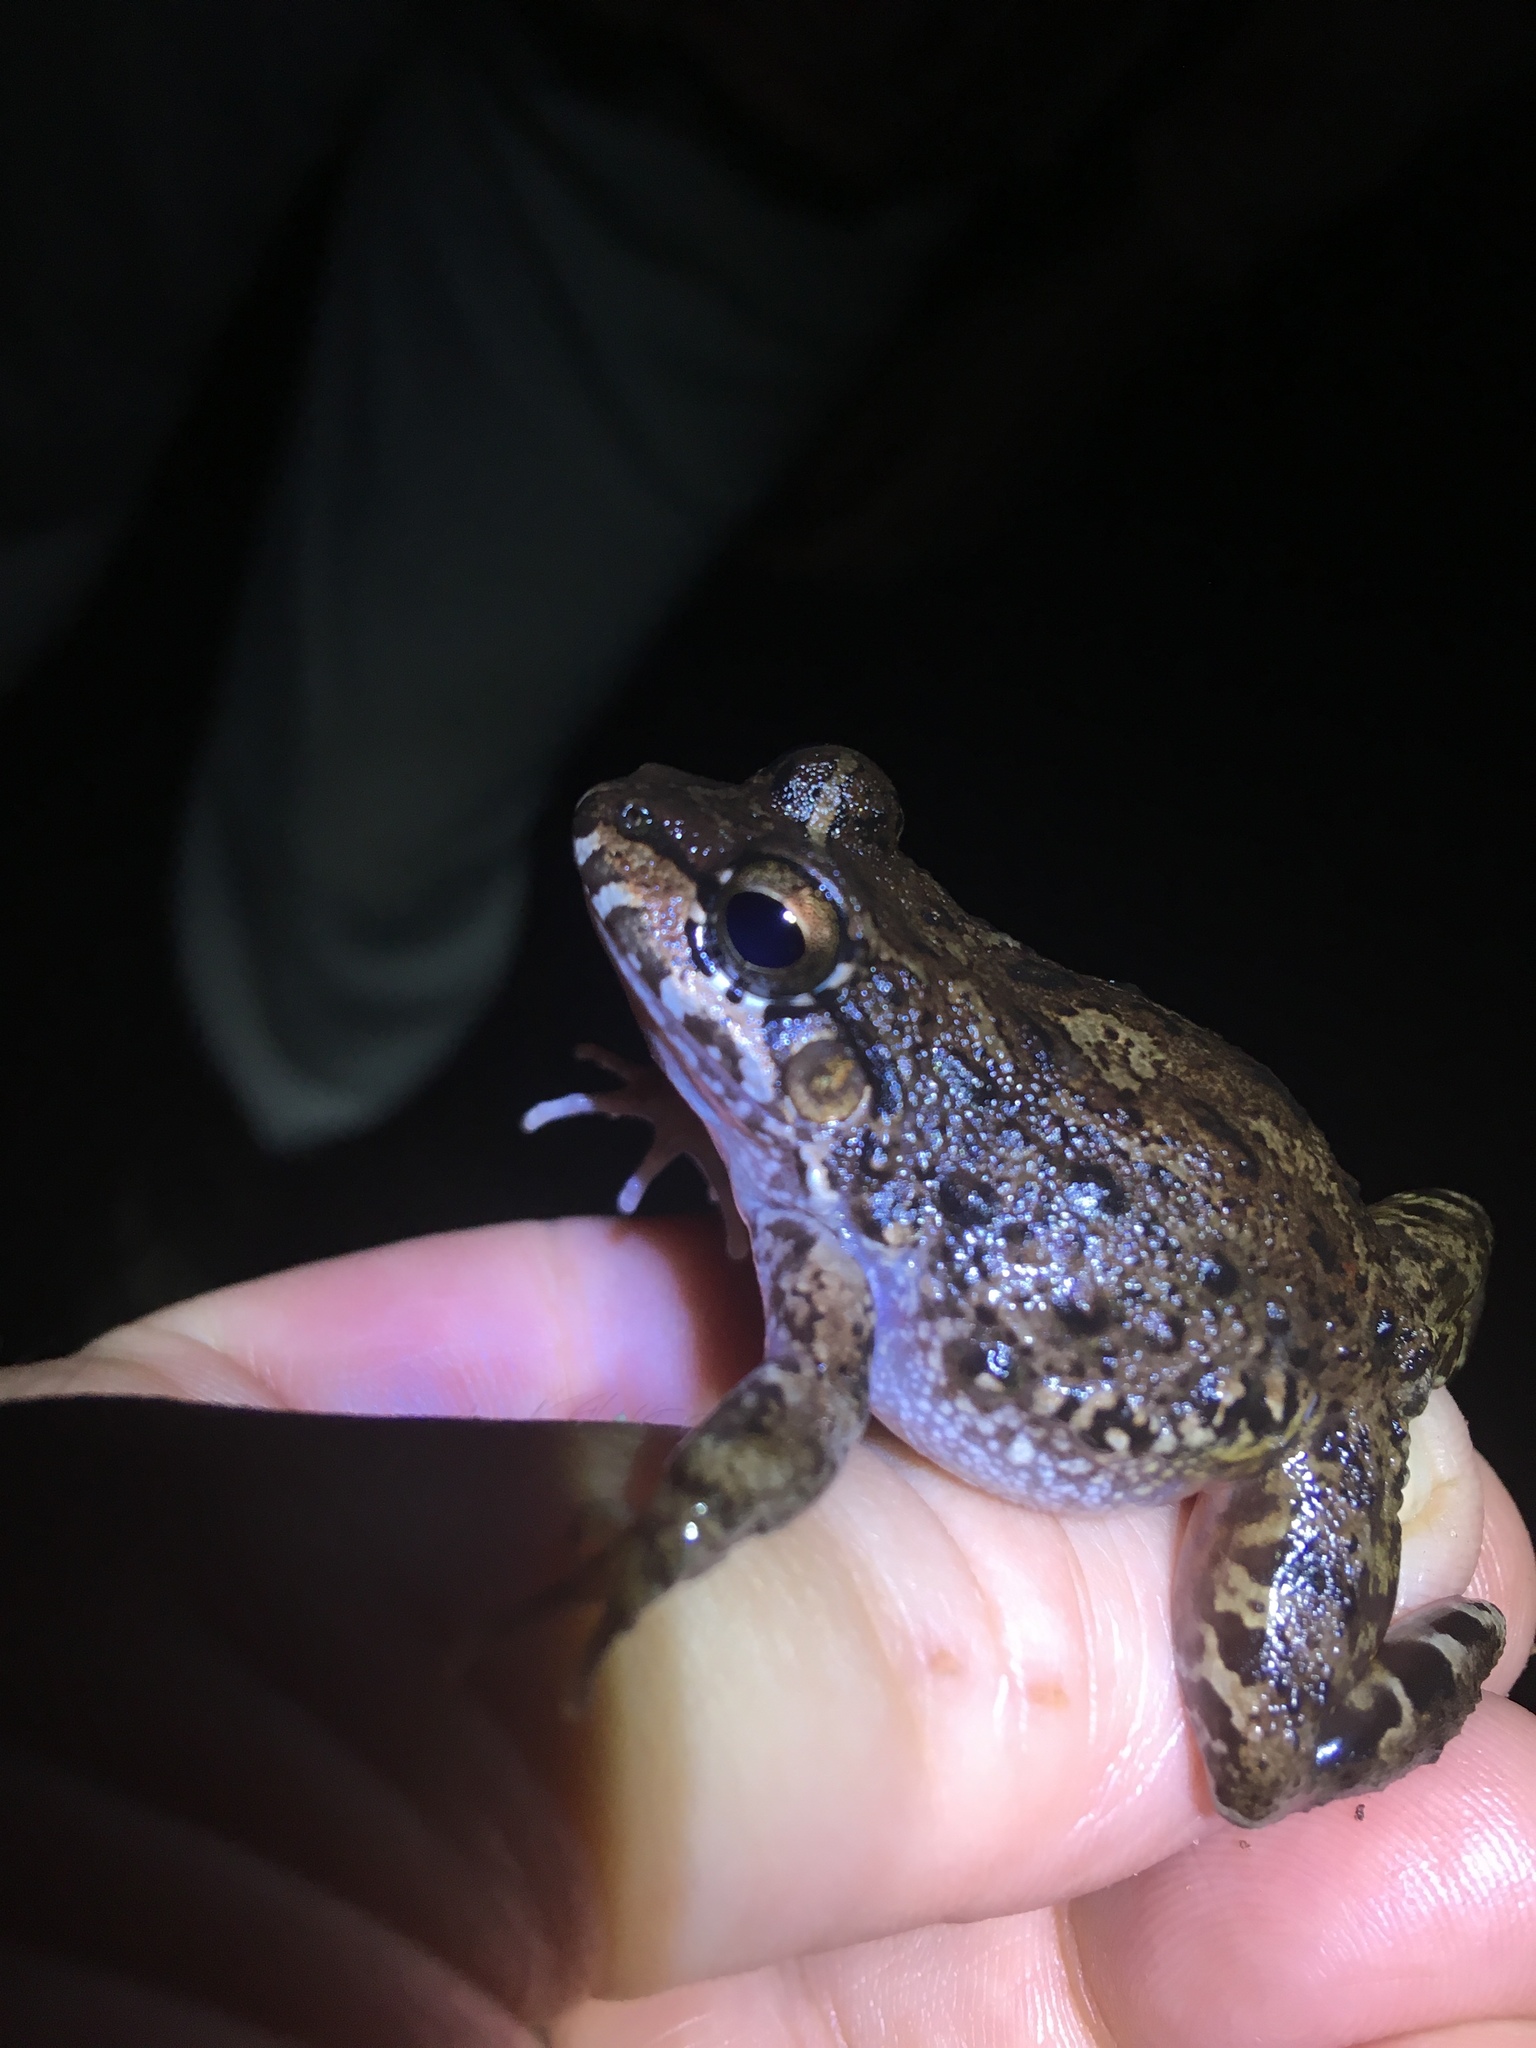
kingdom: Animalia
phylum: Chordata
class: Amphibia
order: Anura
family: Leptodactylidae
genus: Leptodactylus
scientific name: Leptodactylus lithonaetes
